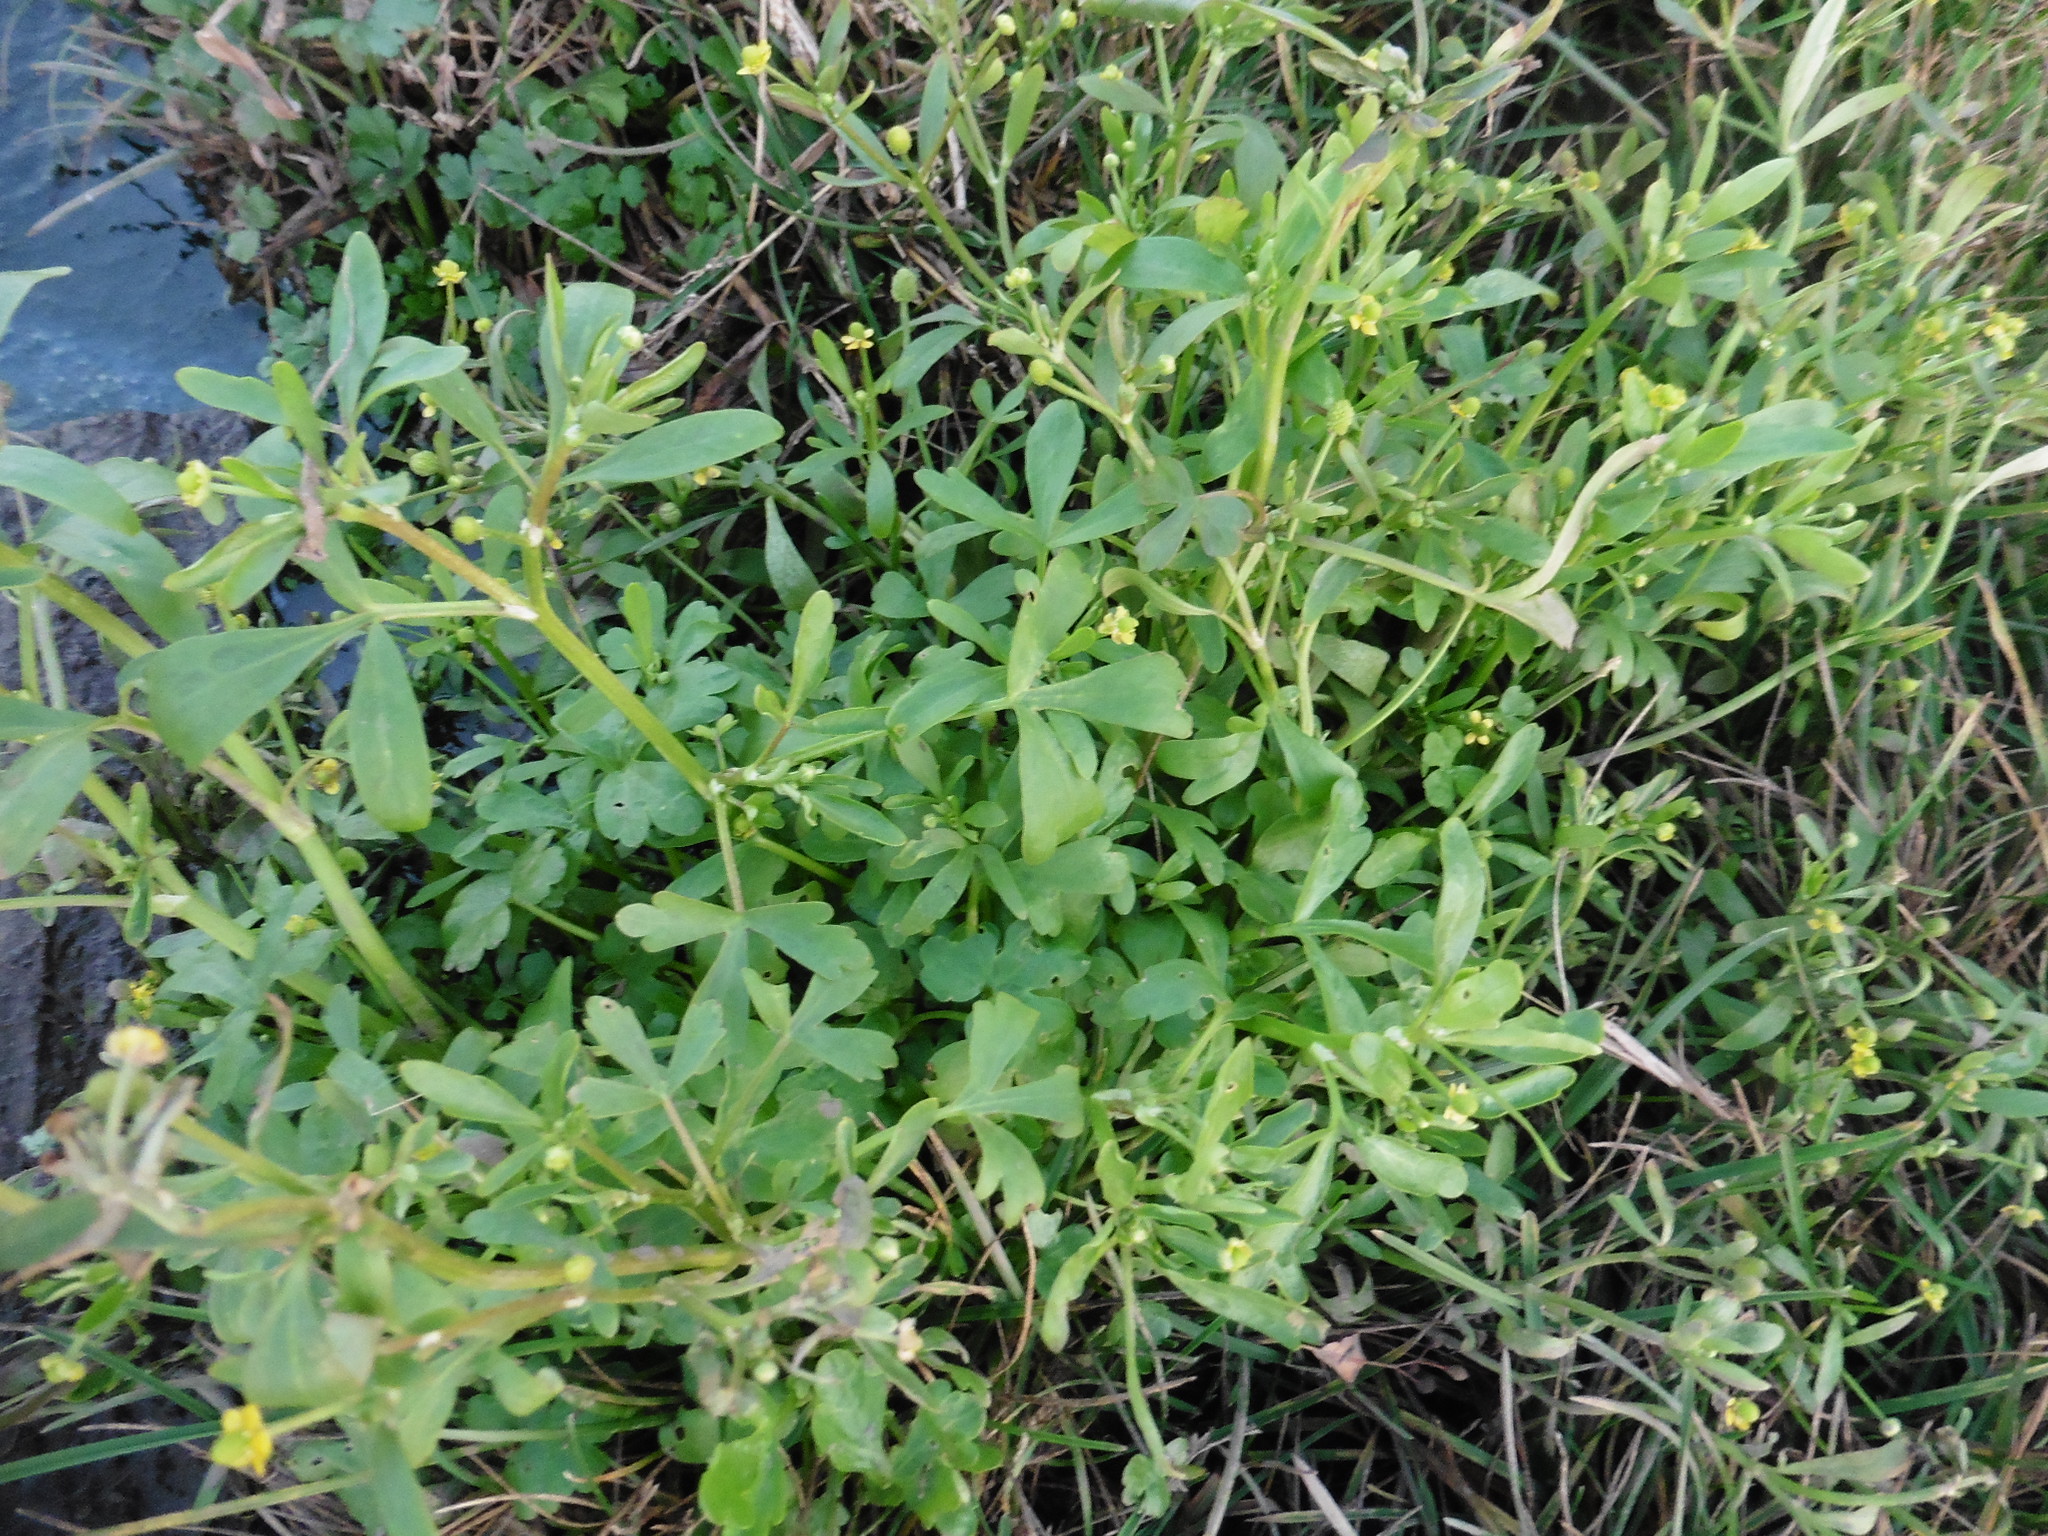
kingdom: Plantae
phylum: Tracheophyta
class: Magnoliopsida
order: Ranunculales
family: Ranunculaceae
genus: Ranunculus
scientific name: Ranunculus sceleratus
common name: Celery-leaved buttercup
